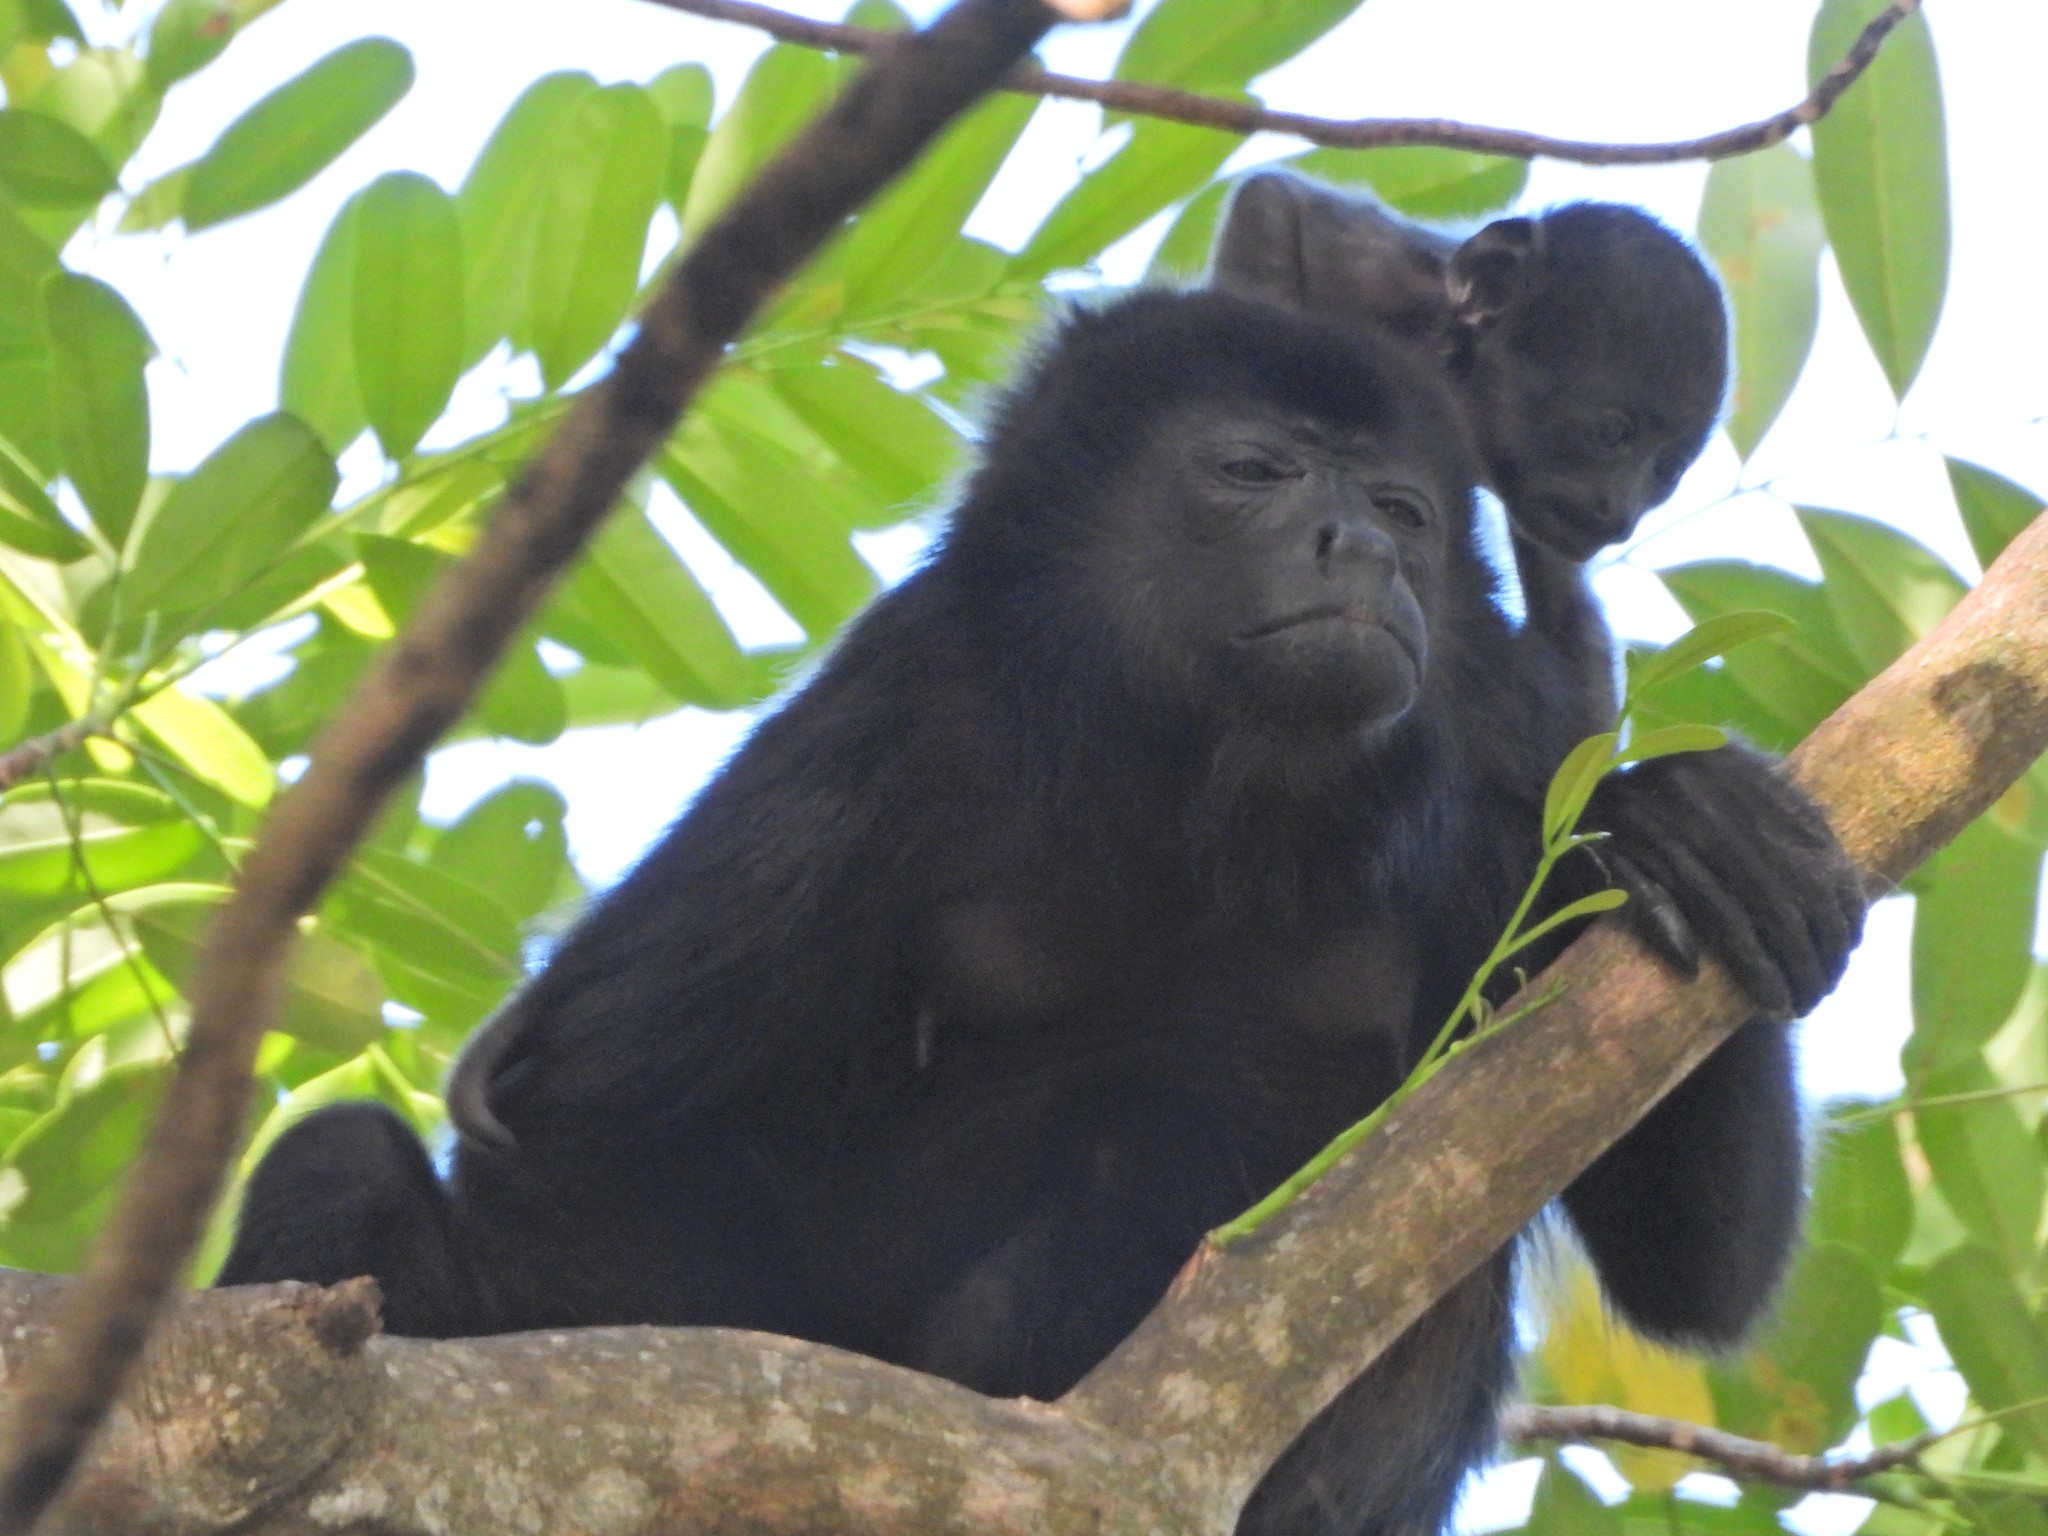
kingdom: Animalia
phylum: Chordata
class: Mammalia
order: Primates
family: Atelidae
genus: Alouatta
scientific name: Alouatta palliata
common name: Mantled howler
